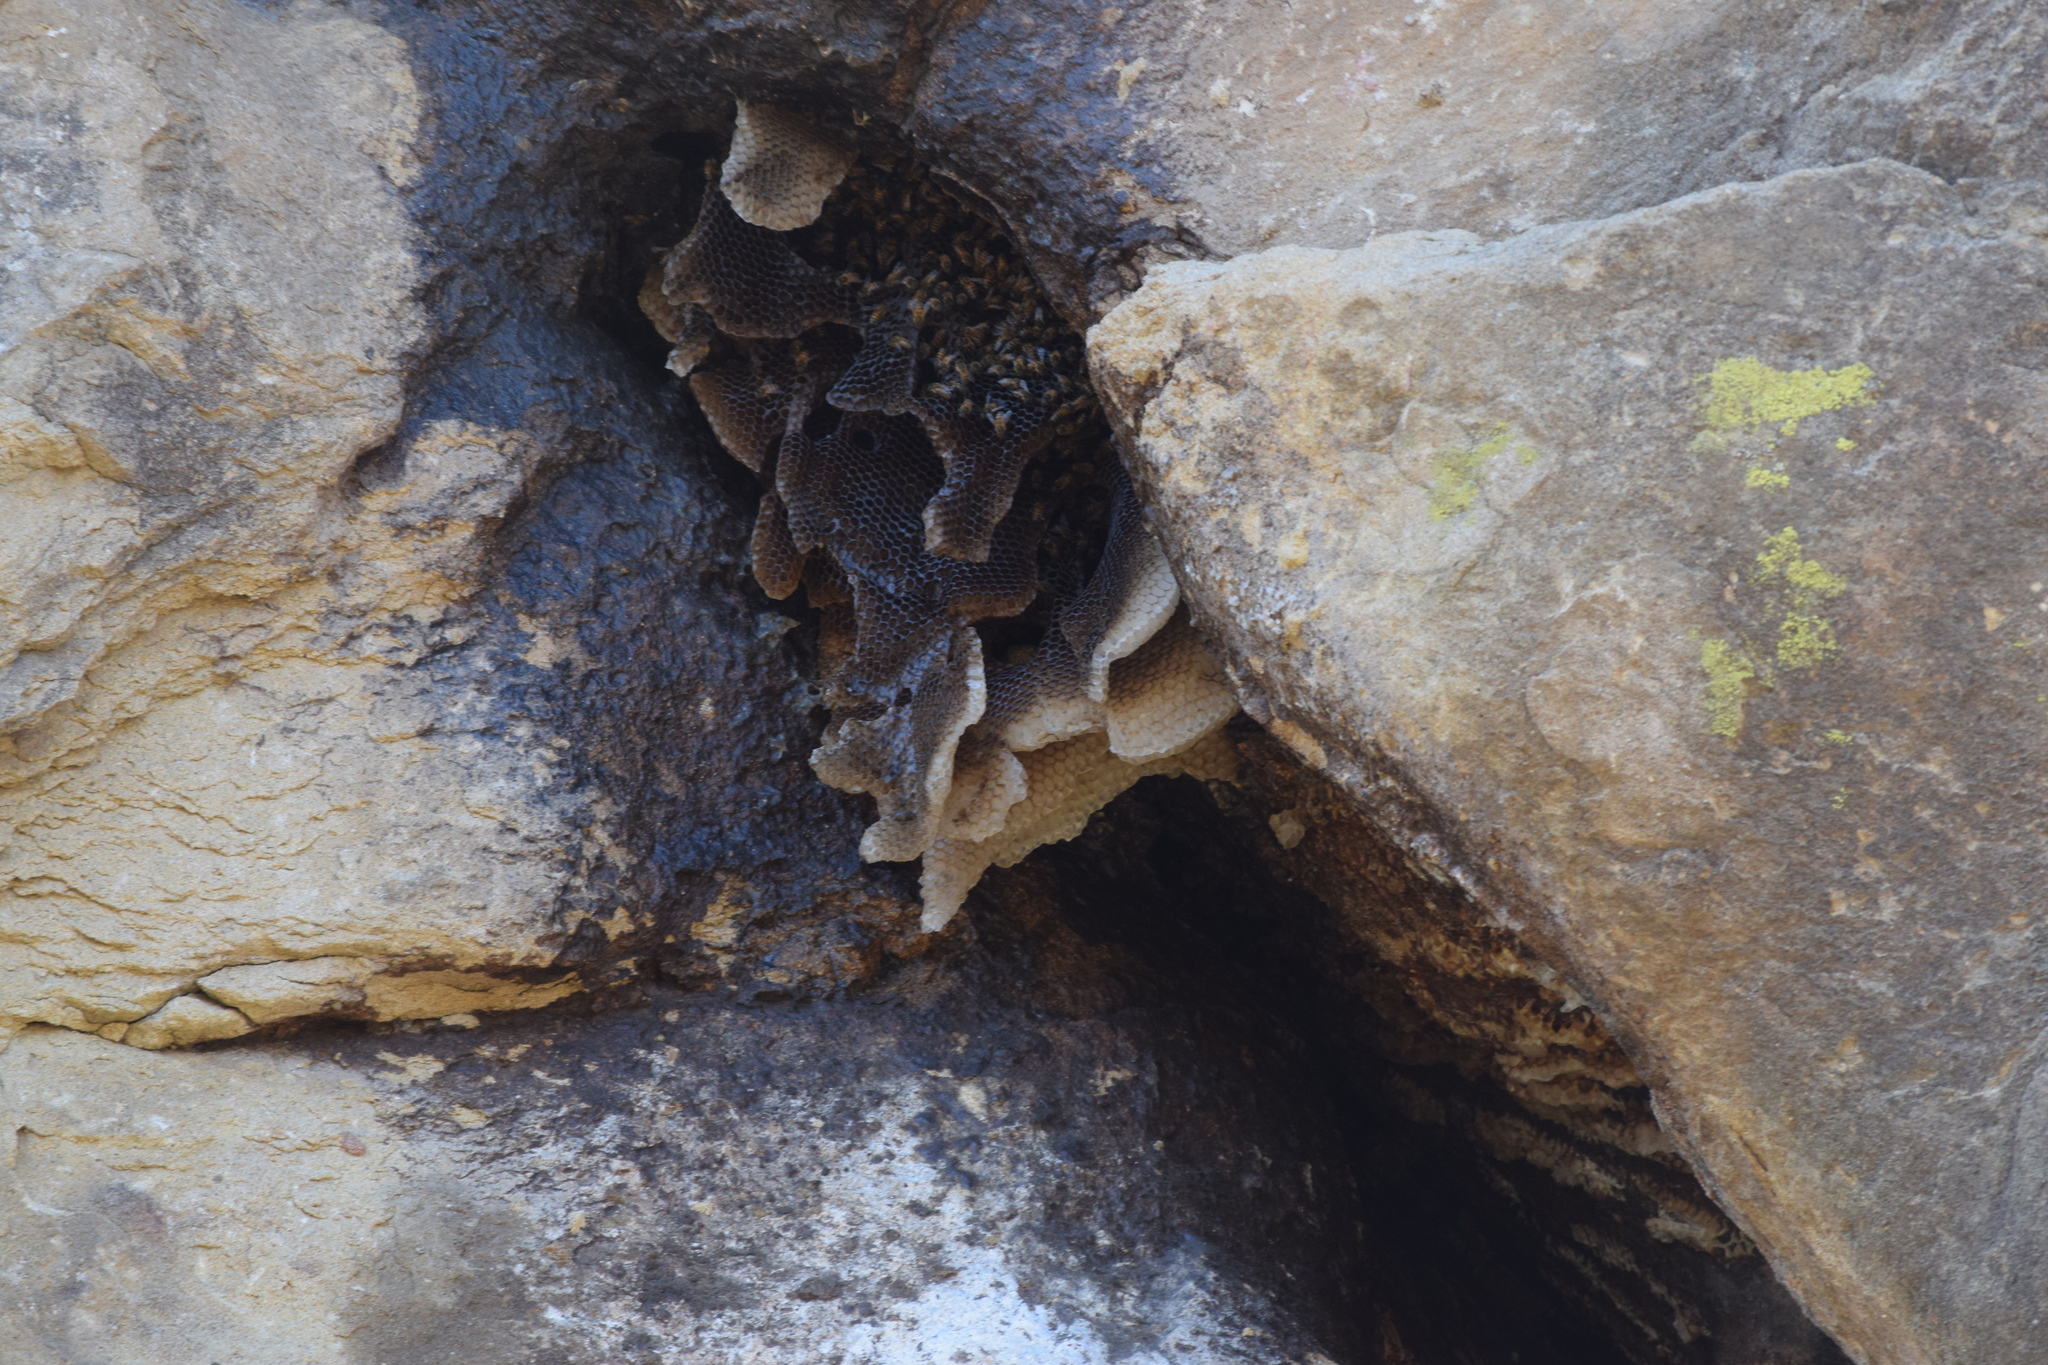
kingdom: Animalia
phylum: Arthropoda
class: Insecta
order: Hymenoptera
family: Apidae
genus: Apis
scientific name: Apis mellifera
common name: Honey bee
